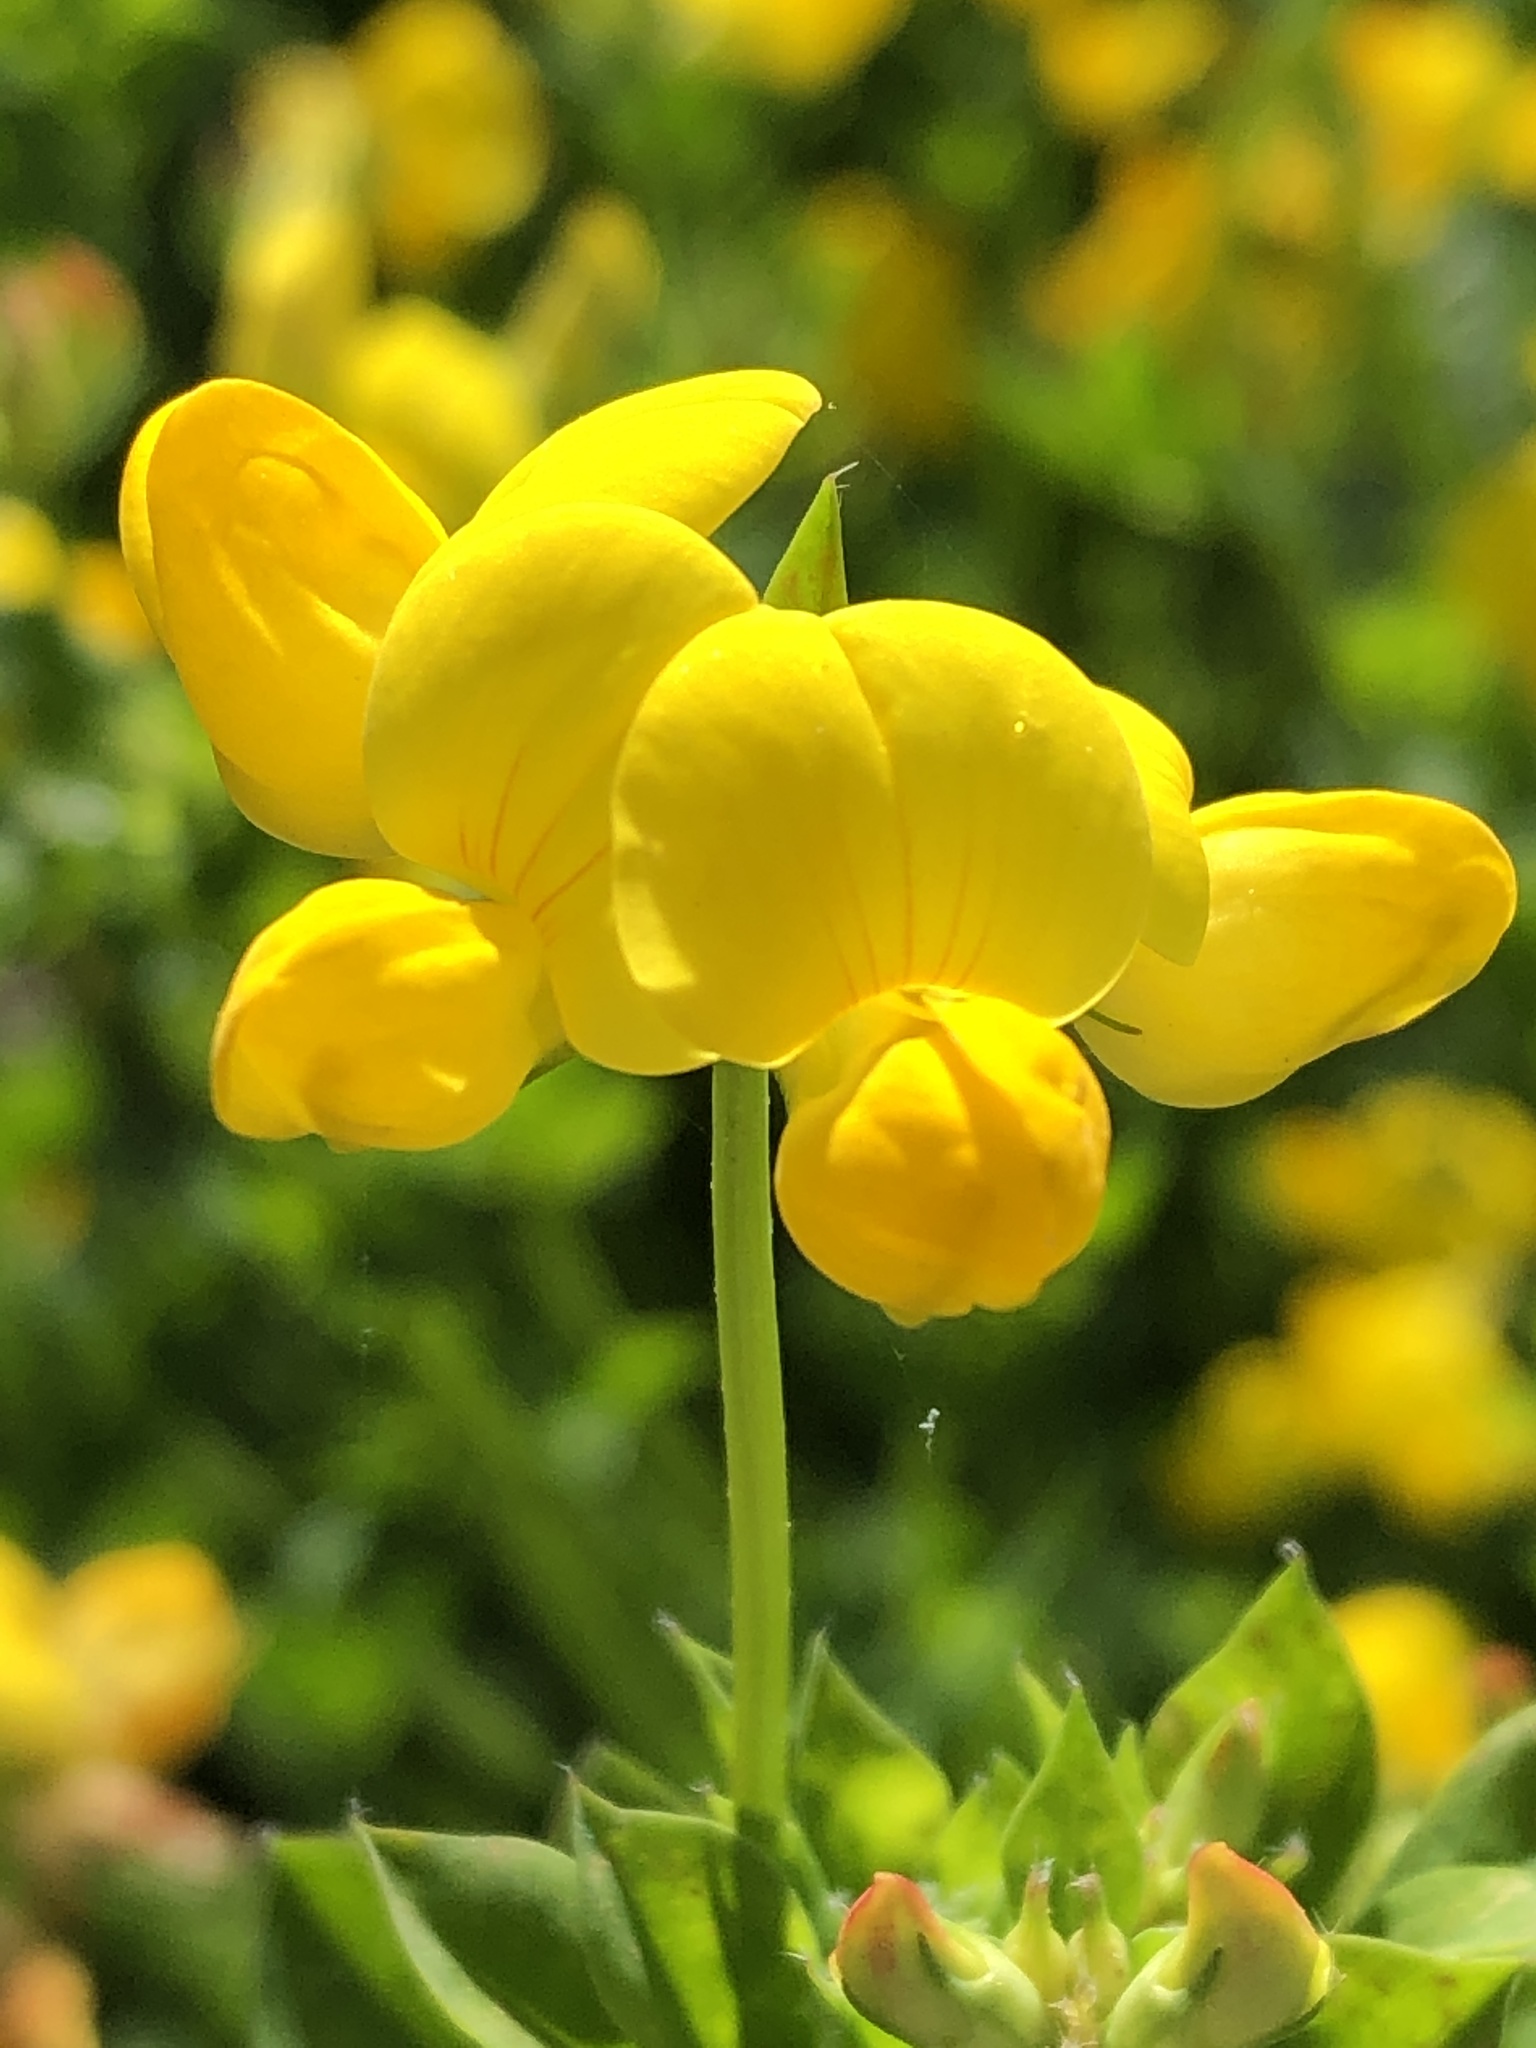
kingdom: Plantae
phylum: Tracheophyta
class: Magnoliopsida
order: Fabales
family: Fabaceae
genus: Lotus
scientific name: Lotus corniculatus
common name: Common bird's-foot-trefoil
